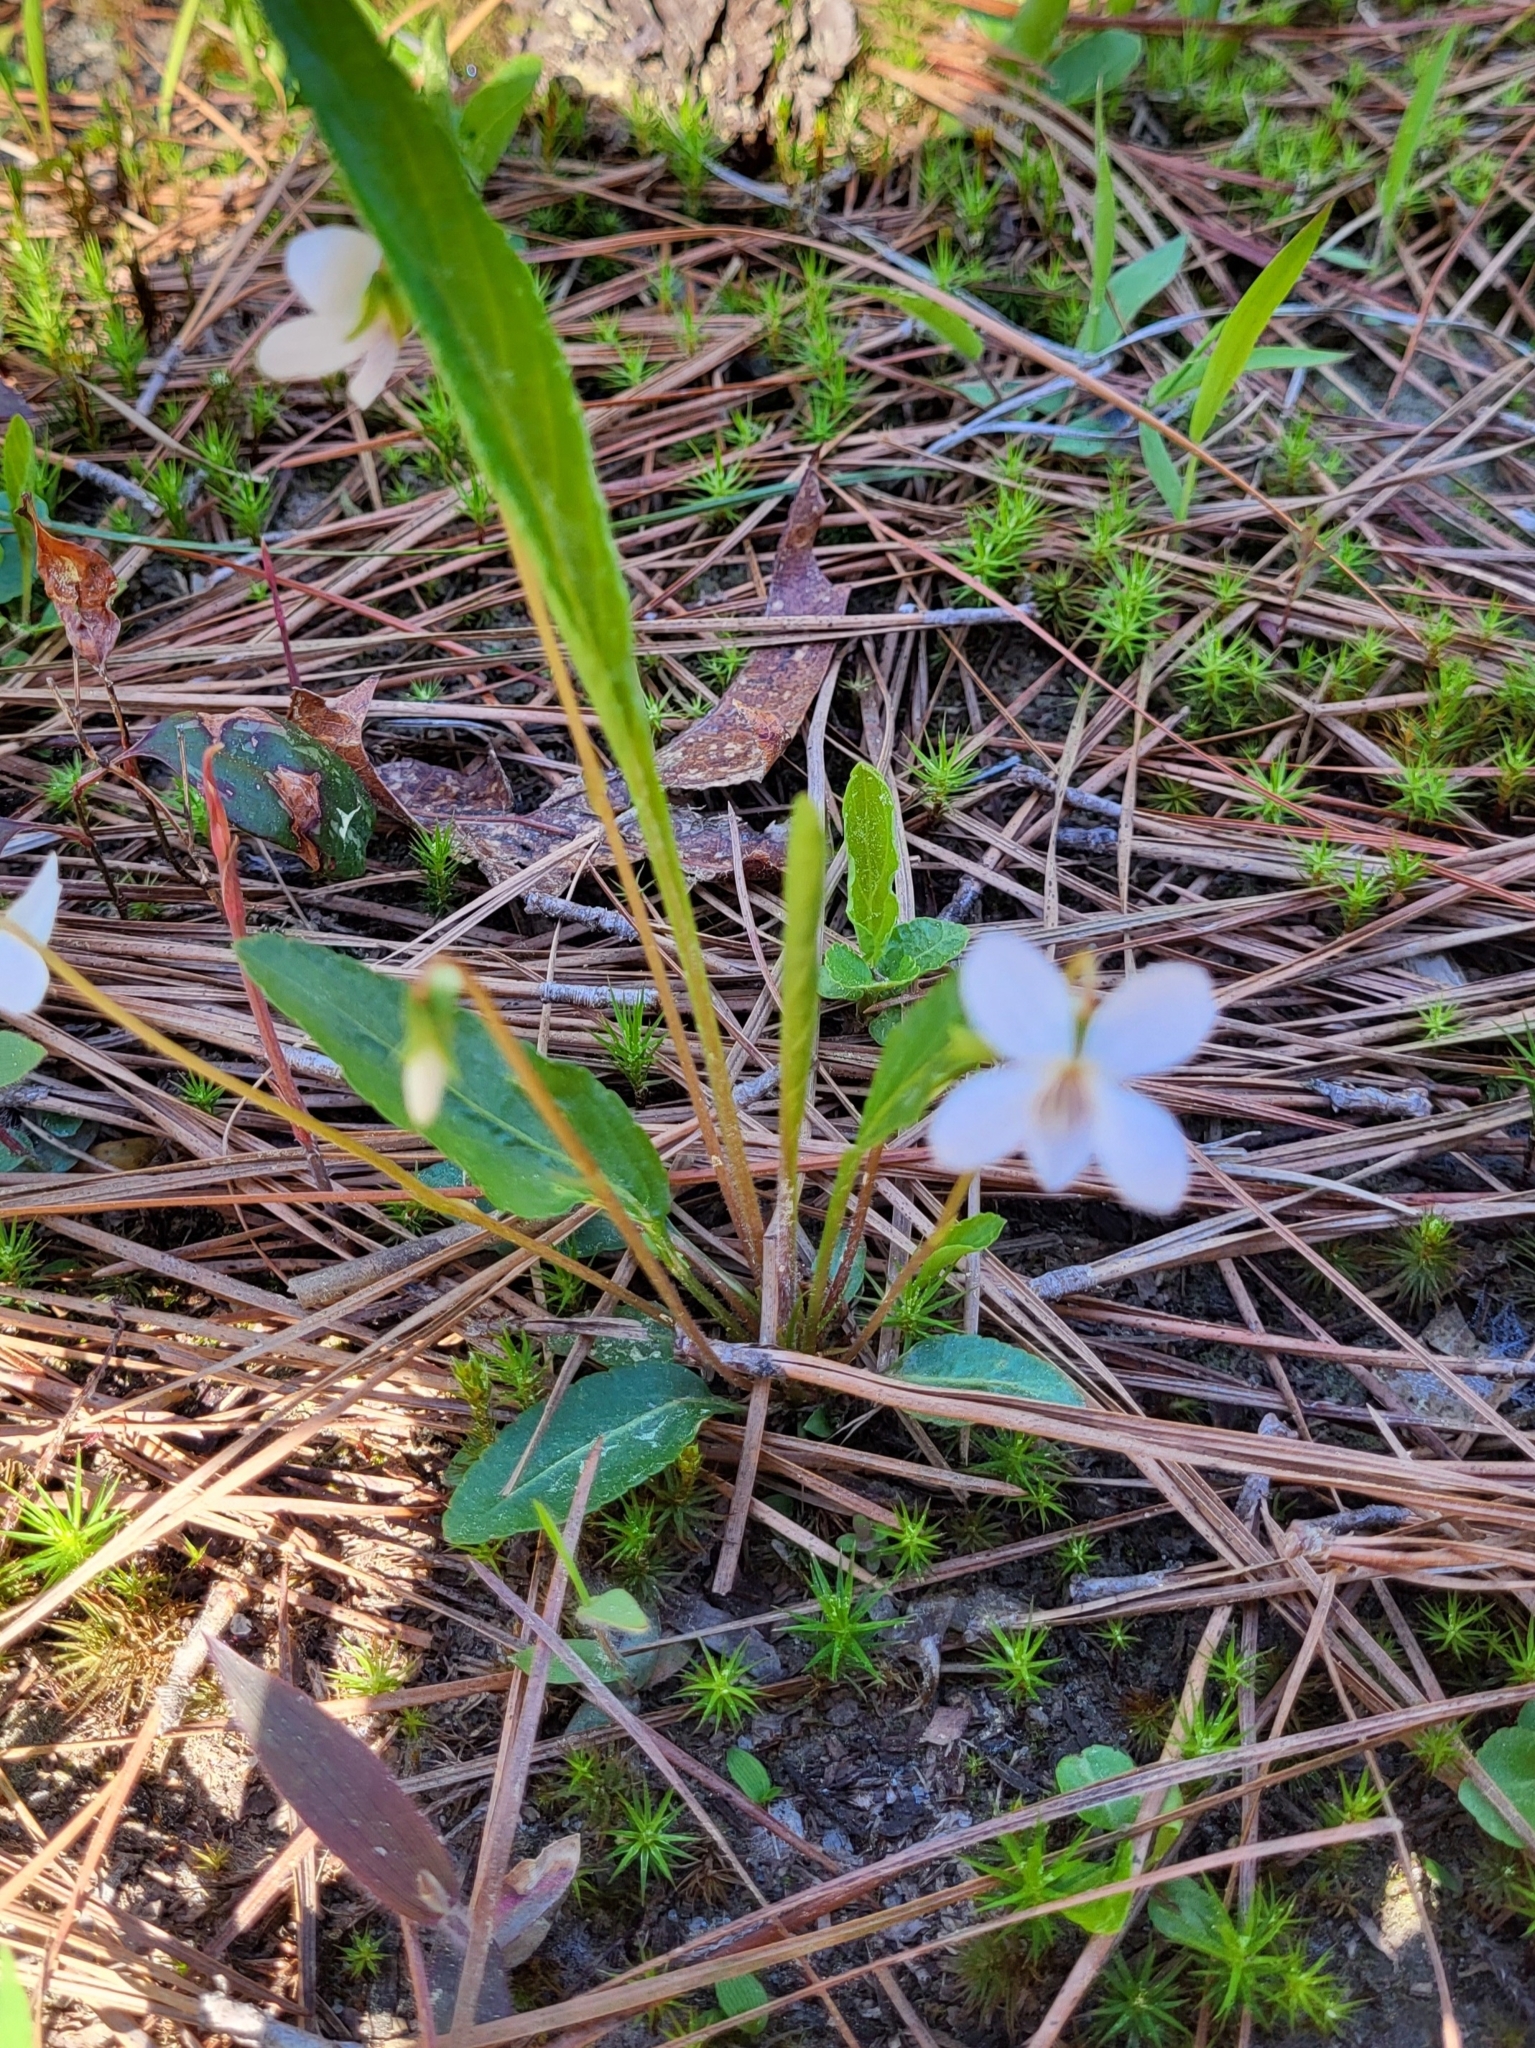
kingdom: Plantae
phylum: Tracheophyta
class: Magnoliopsida
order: Malpighiales
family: Violaceae
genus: Viola
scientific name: Viola lanceolata
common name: Bog white violet
